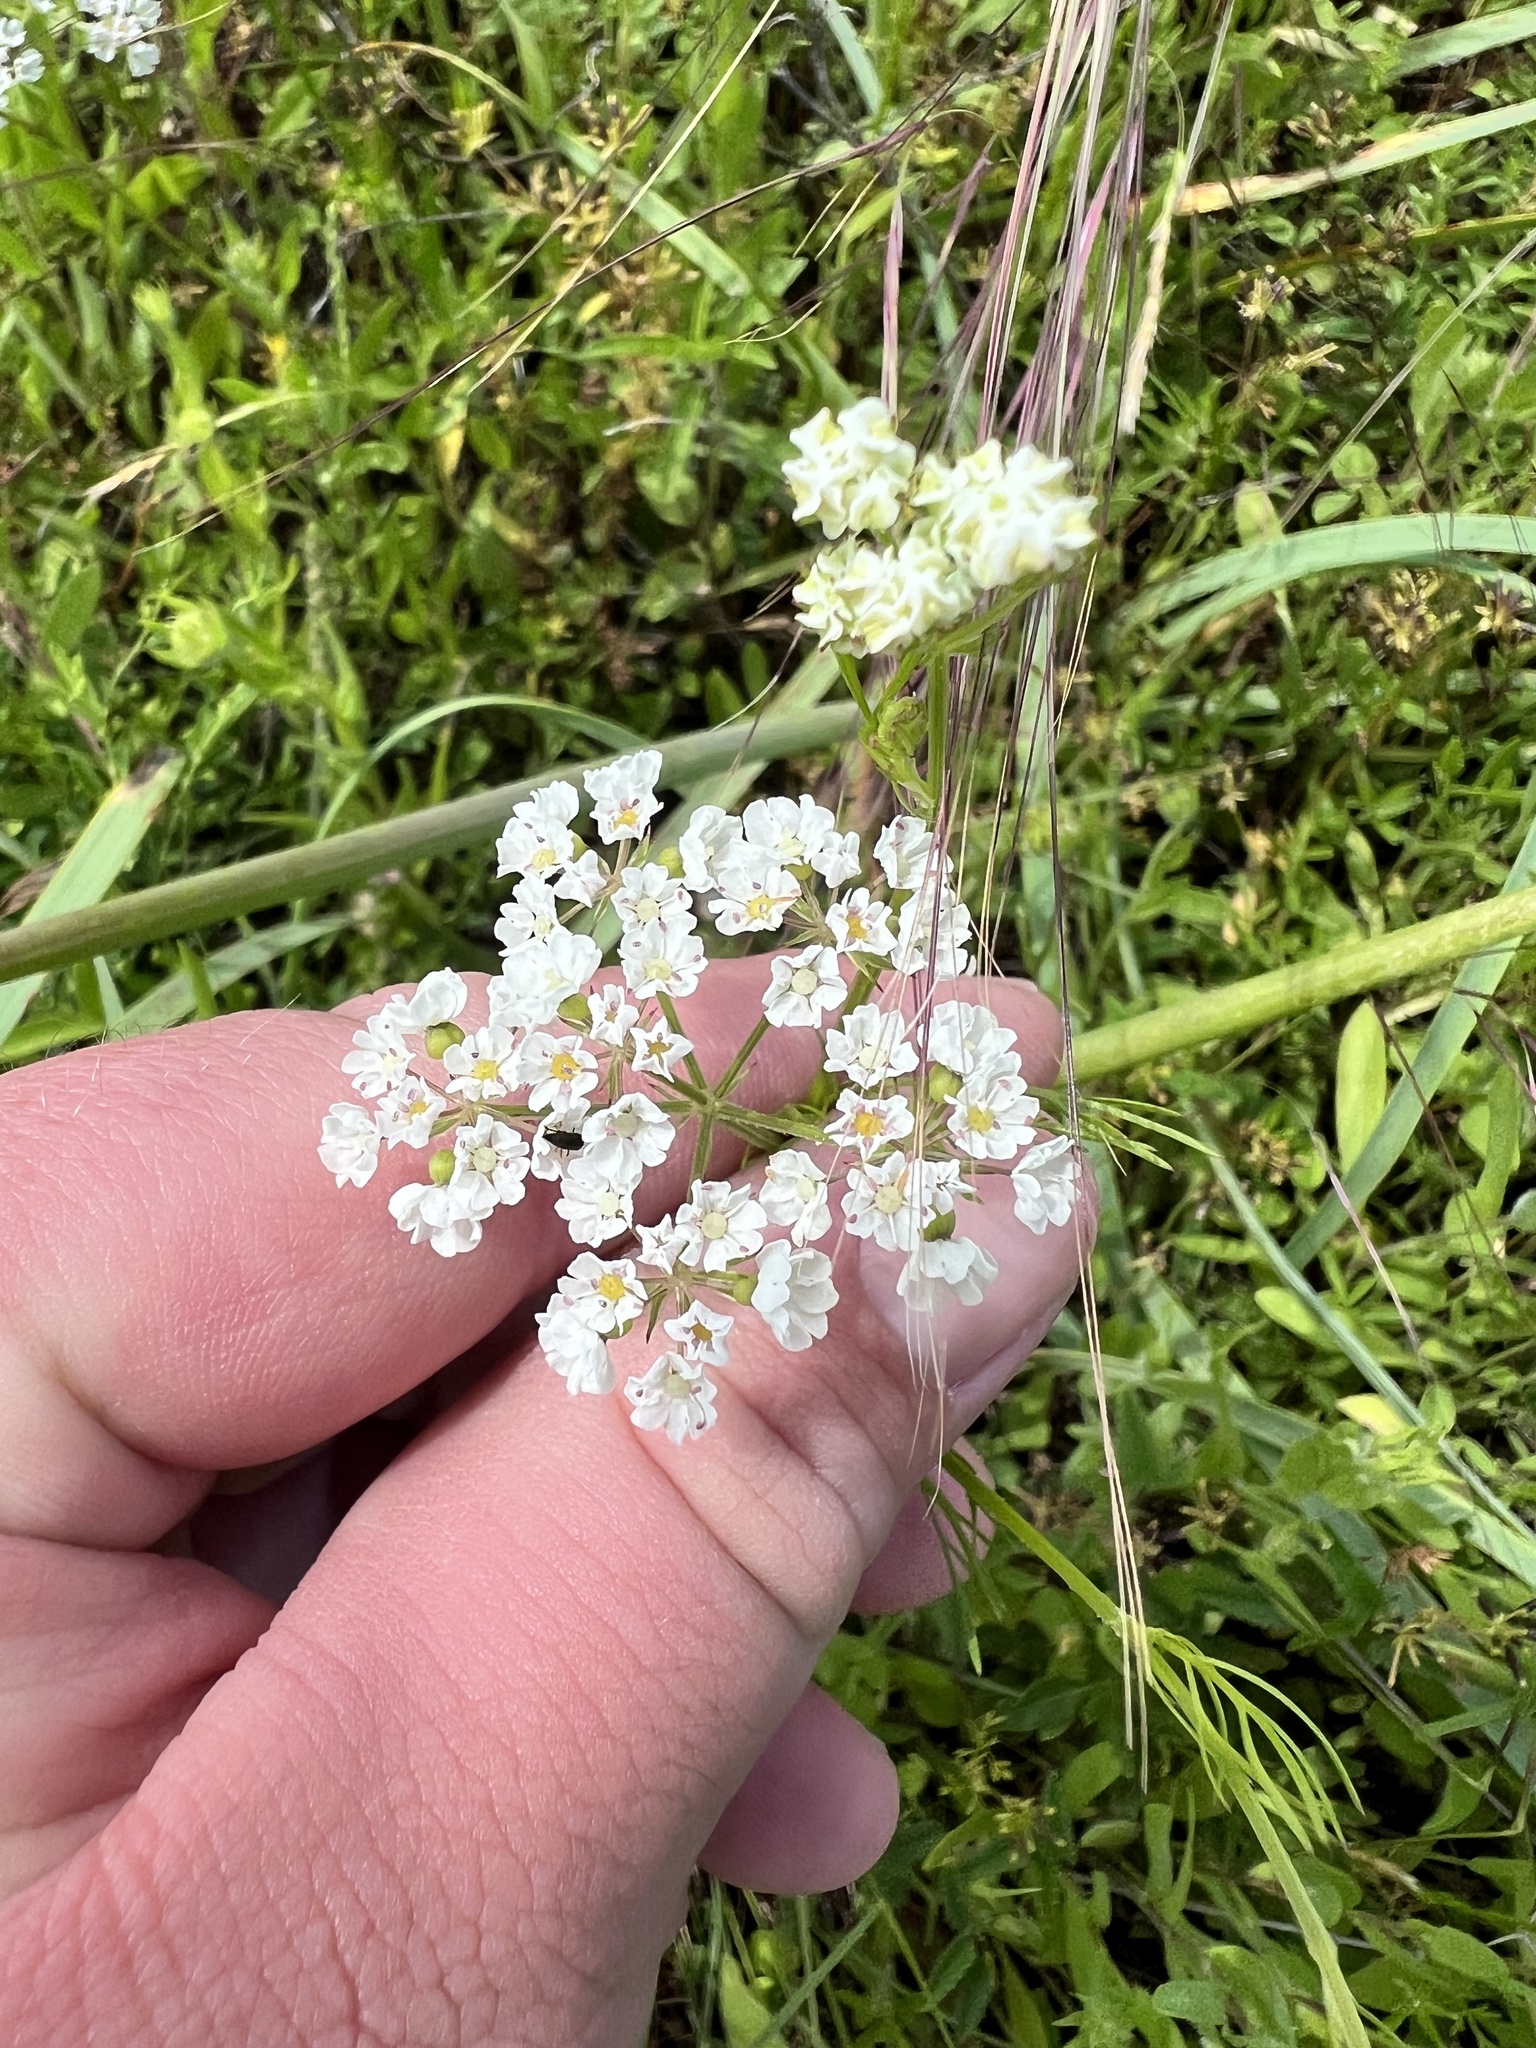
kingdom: Plantae
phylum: Tracheophyta
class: Magnoliopsida
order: Apiales
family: Apiaceae
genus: Atrema
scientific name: Atrema americanum
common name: Prairie-bishop
